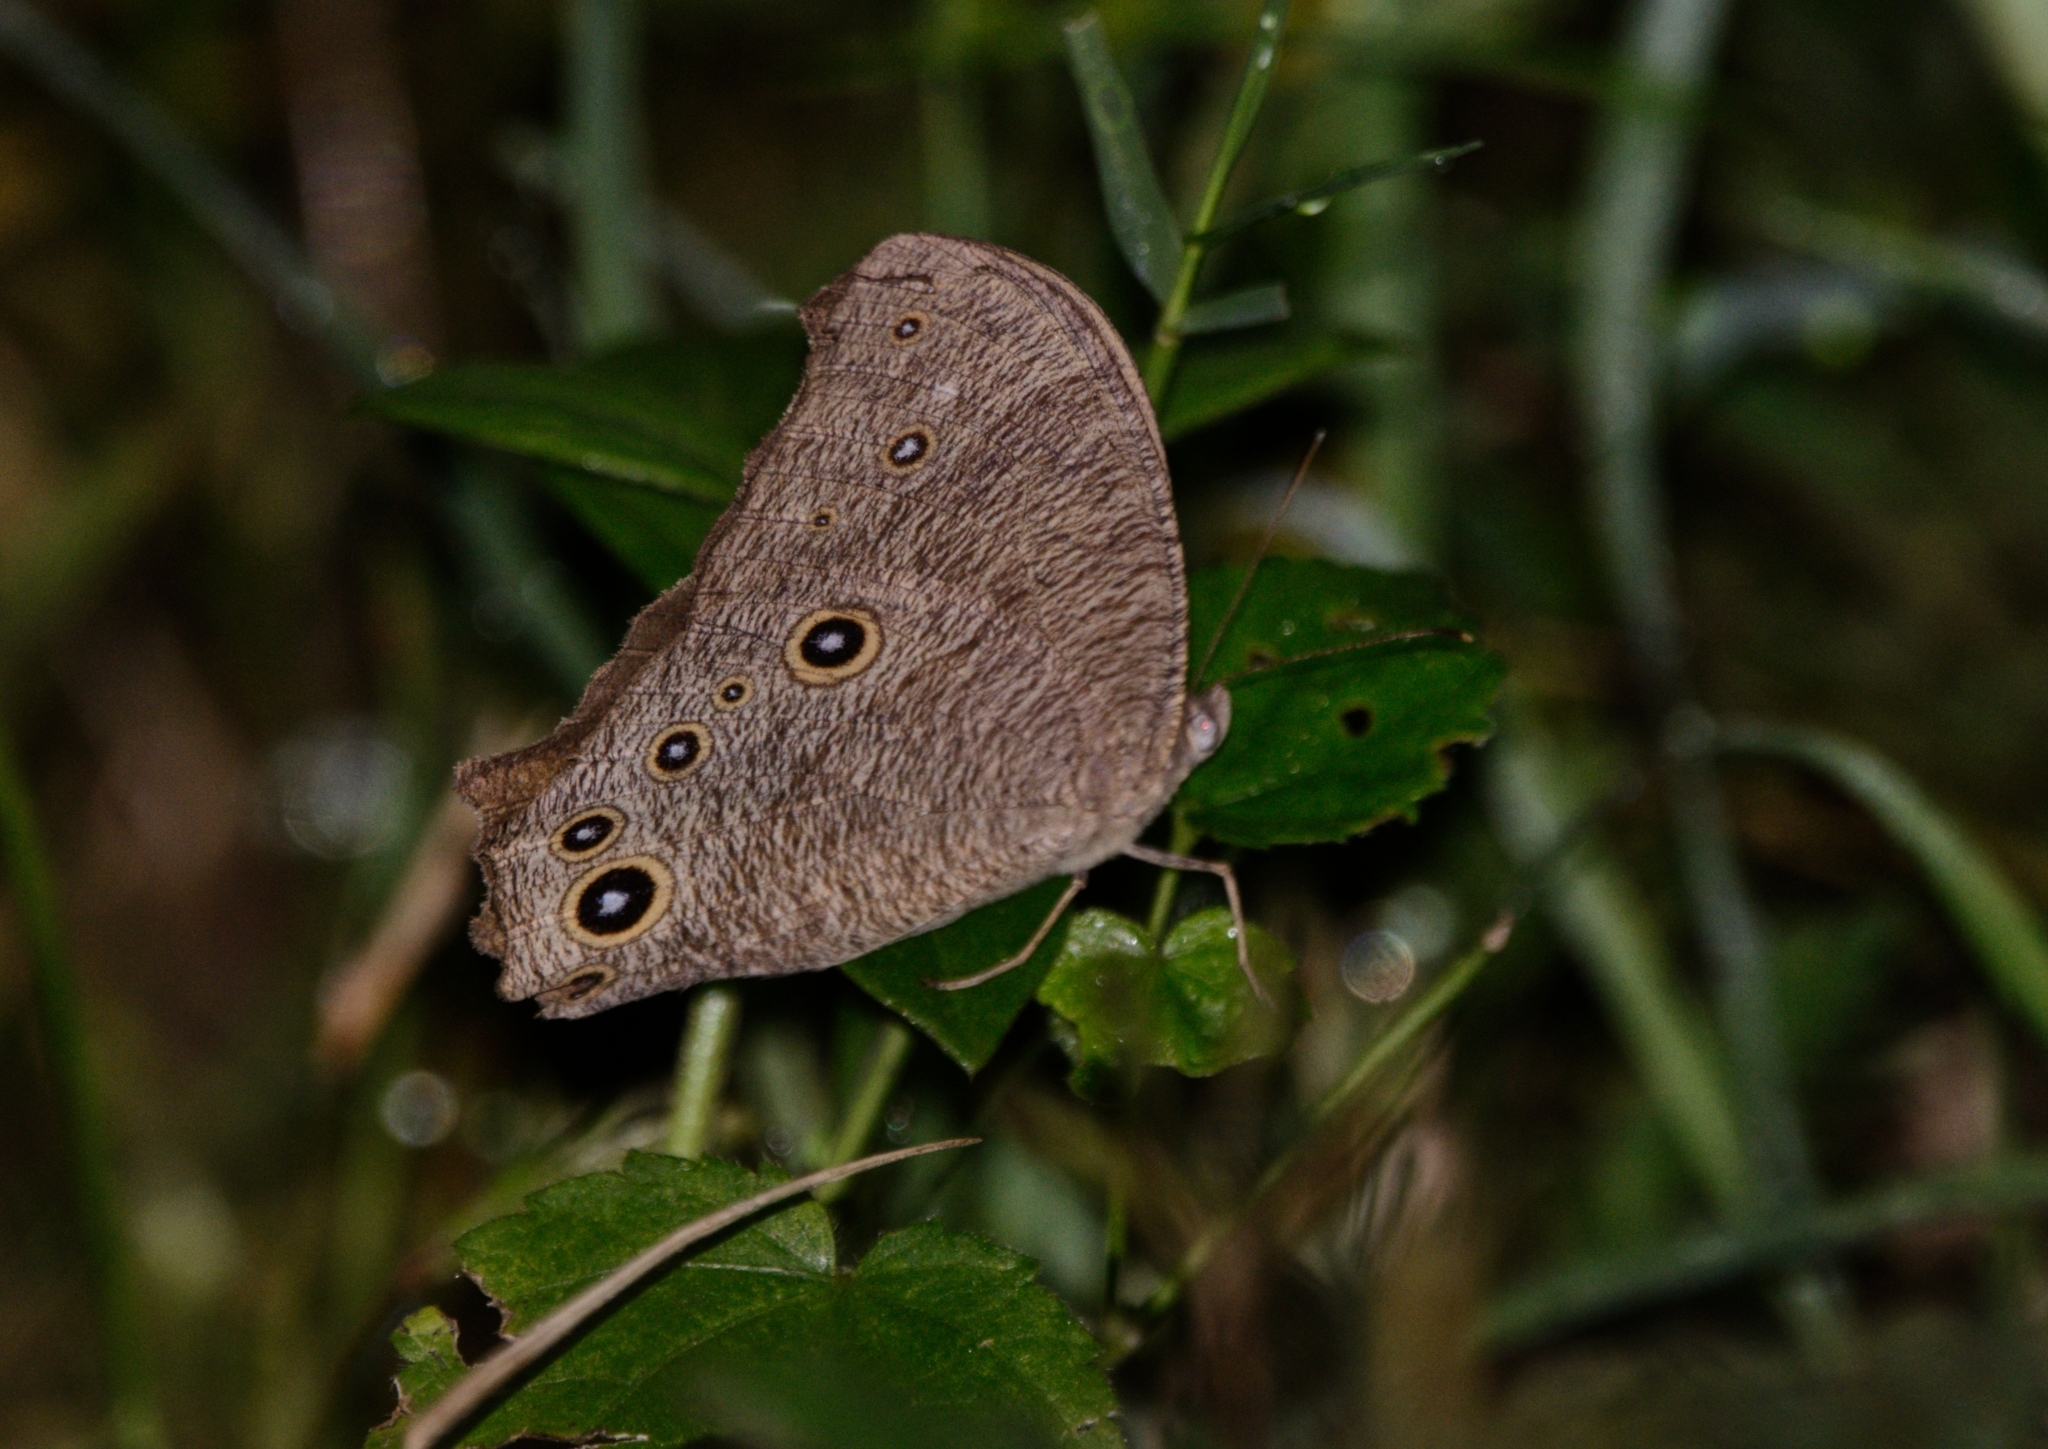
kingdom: Animalia
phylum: Arthropoda
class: Insecta
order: Lepidoptera
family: Nymphalidae
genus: Melanitis
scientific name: Melanitis leda
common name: Twilight brown
